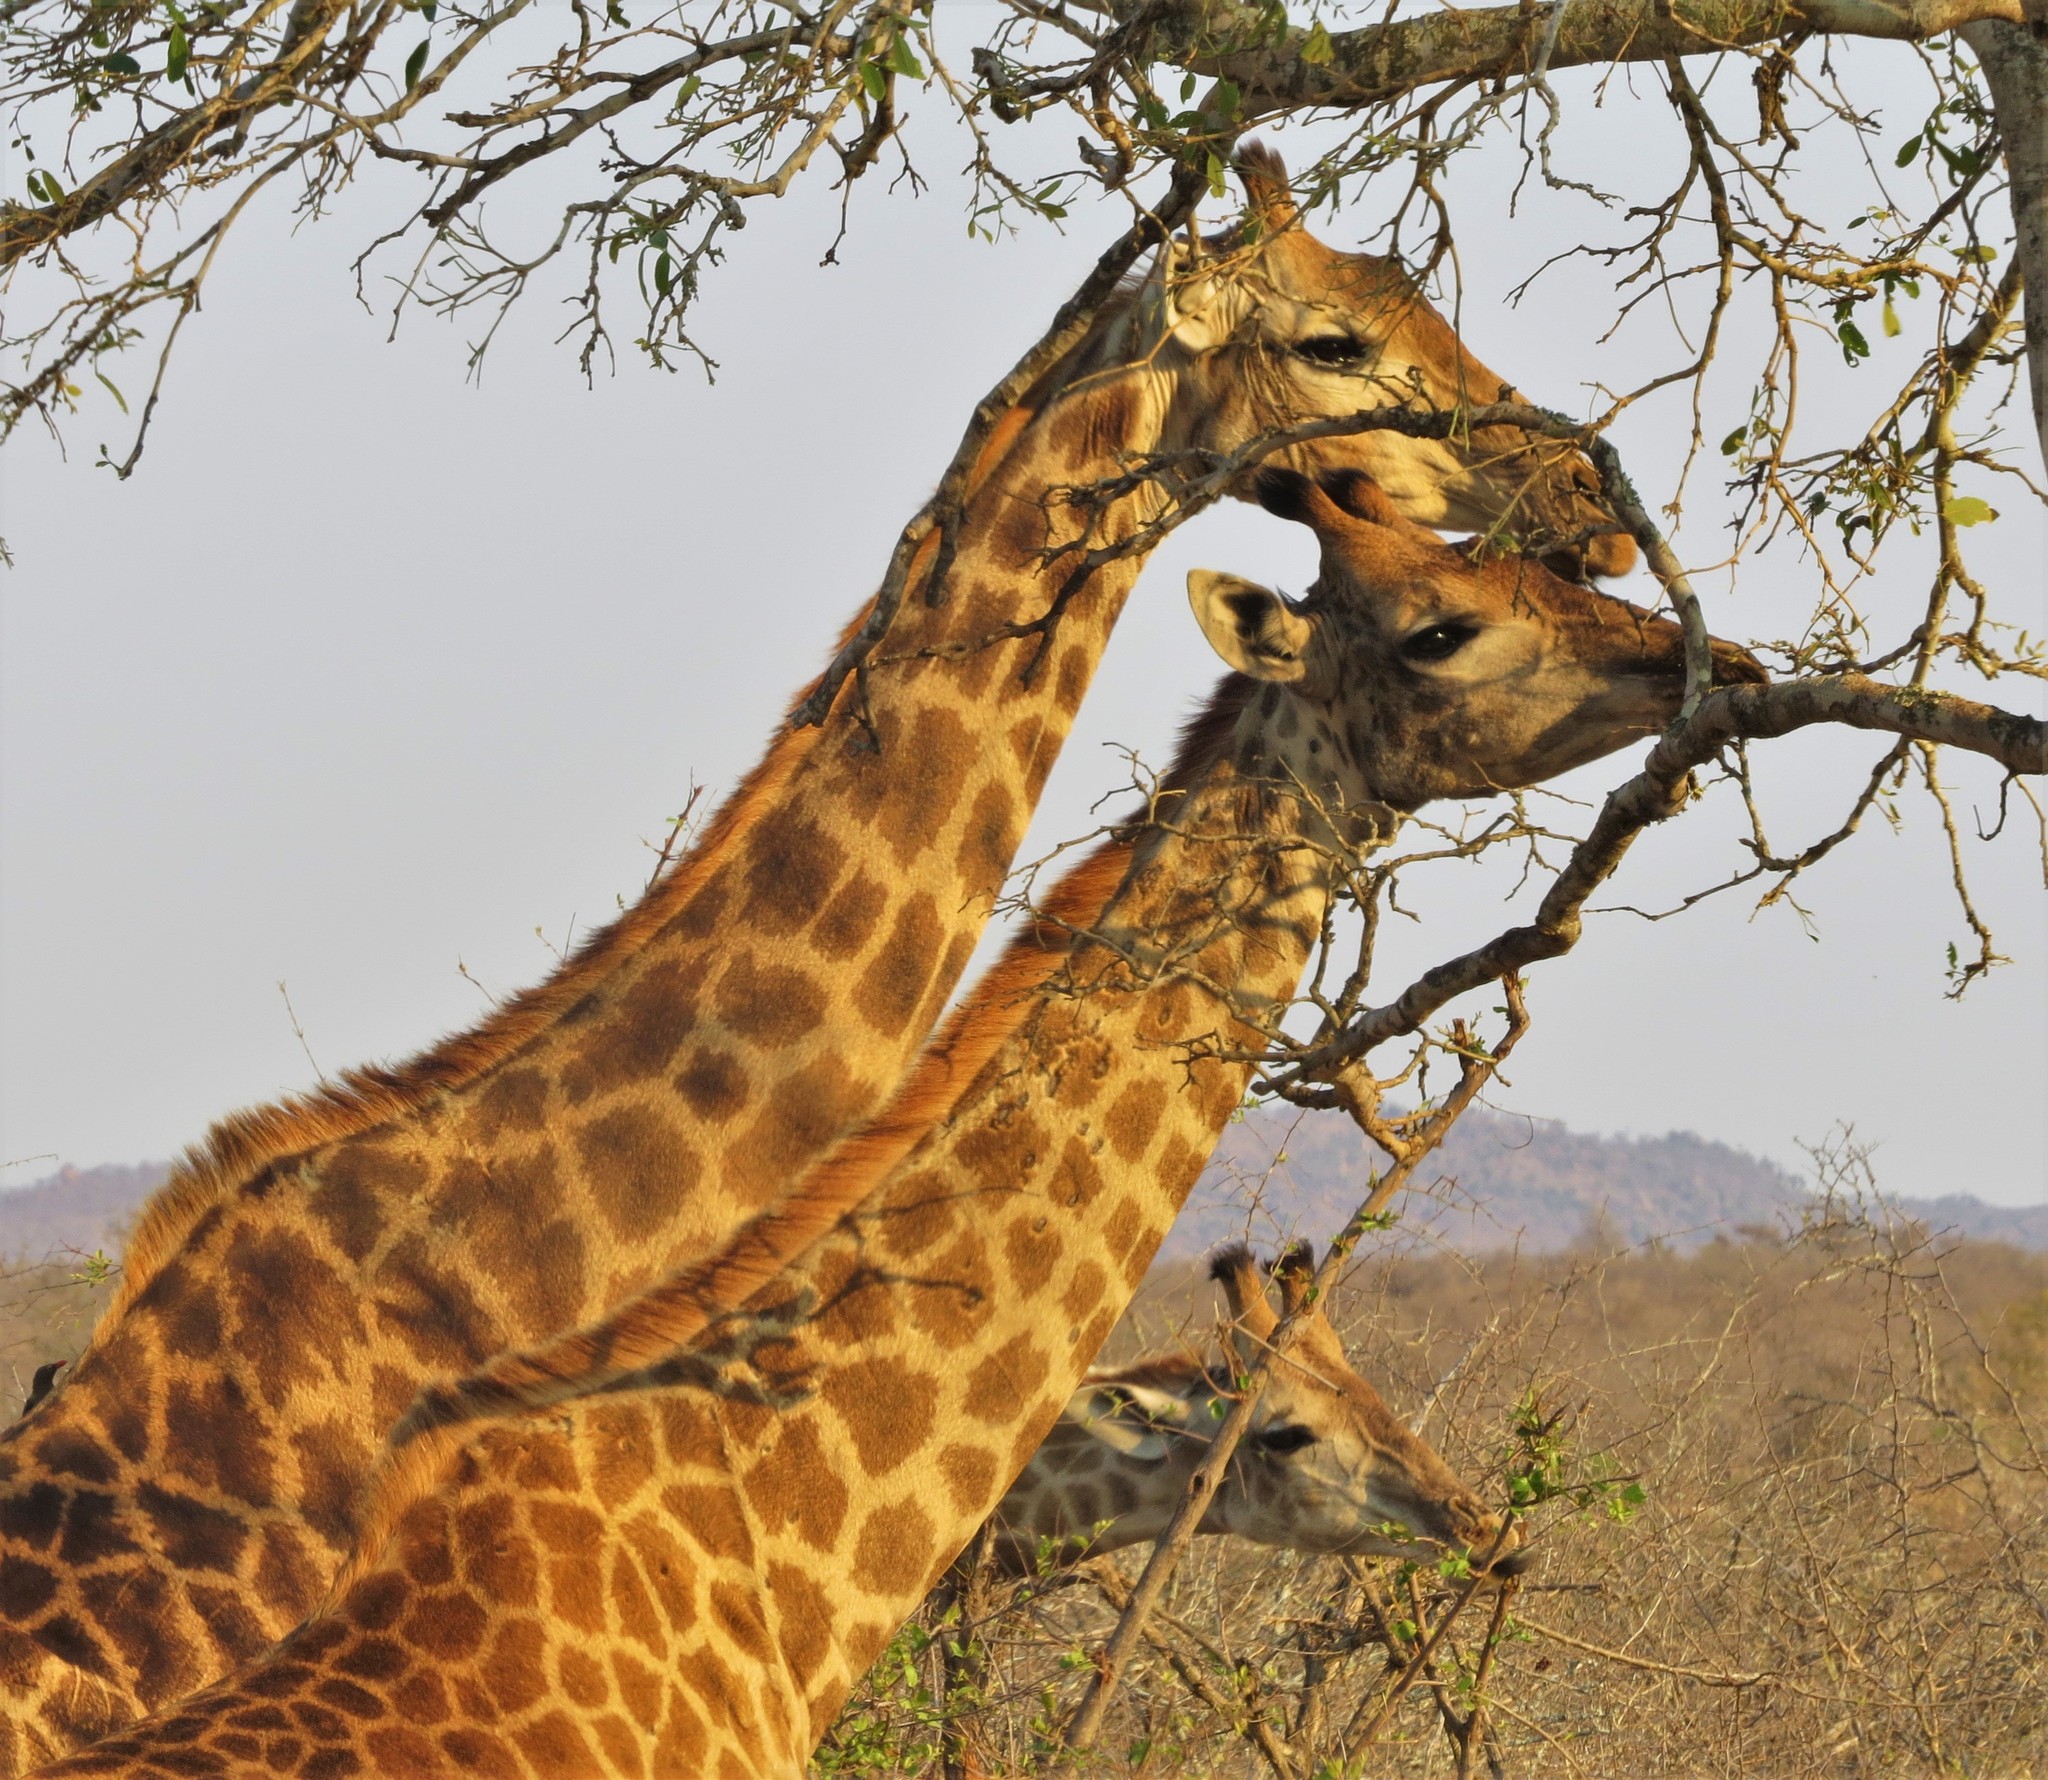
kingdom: Animalia
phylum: Chordata
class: Mammalia
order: Artiodactyla
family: Giraffidae
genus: Giraffa
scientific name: Giraffa giraffa
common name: Southern giraffe
